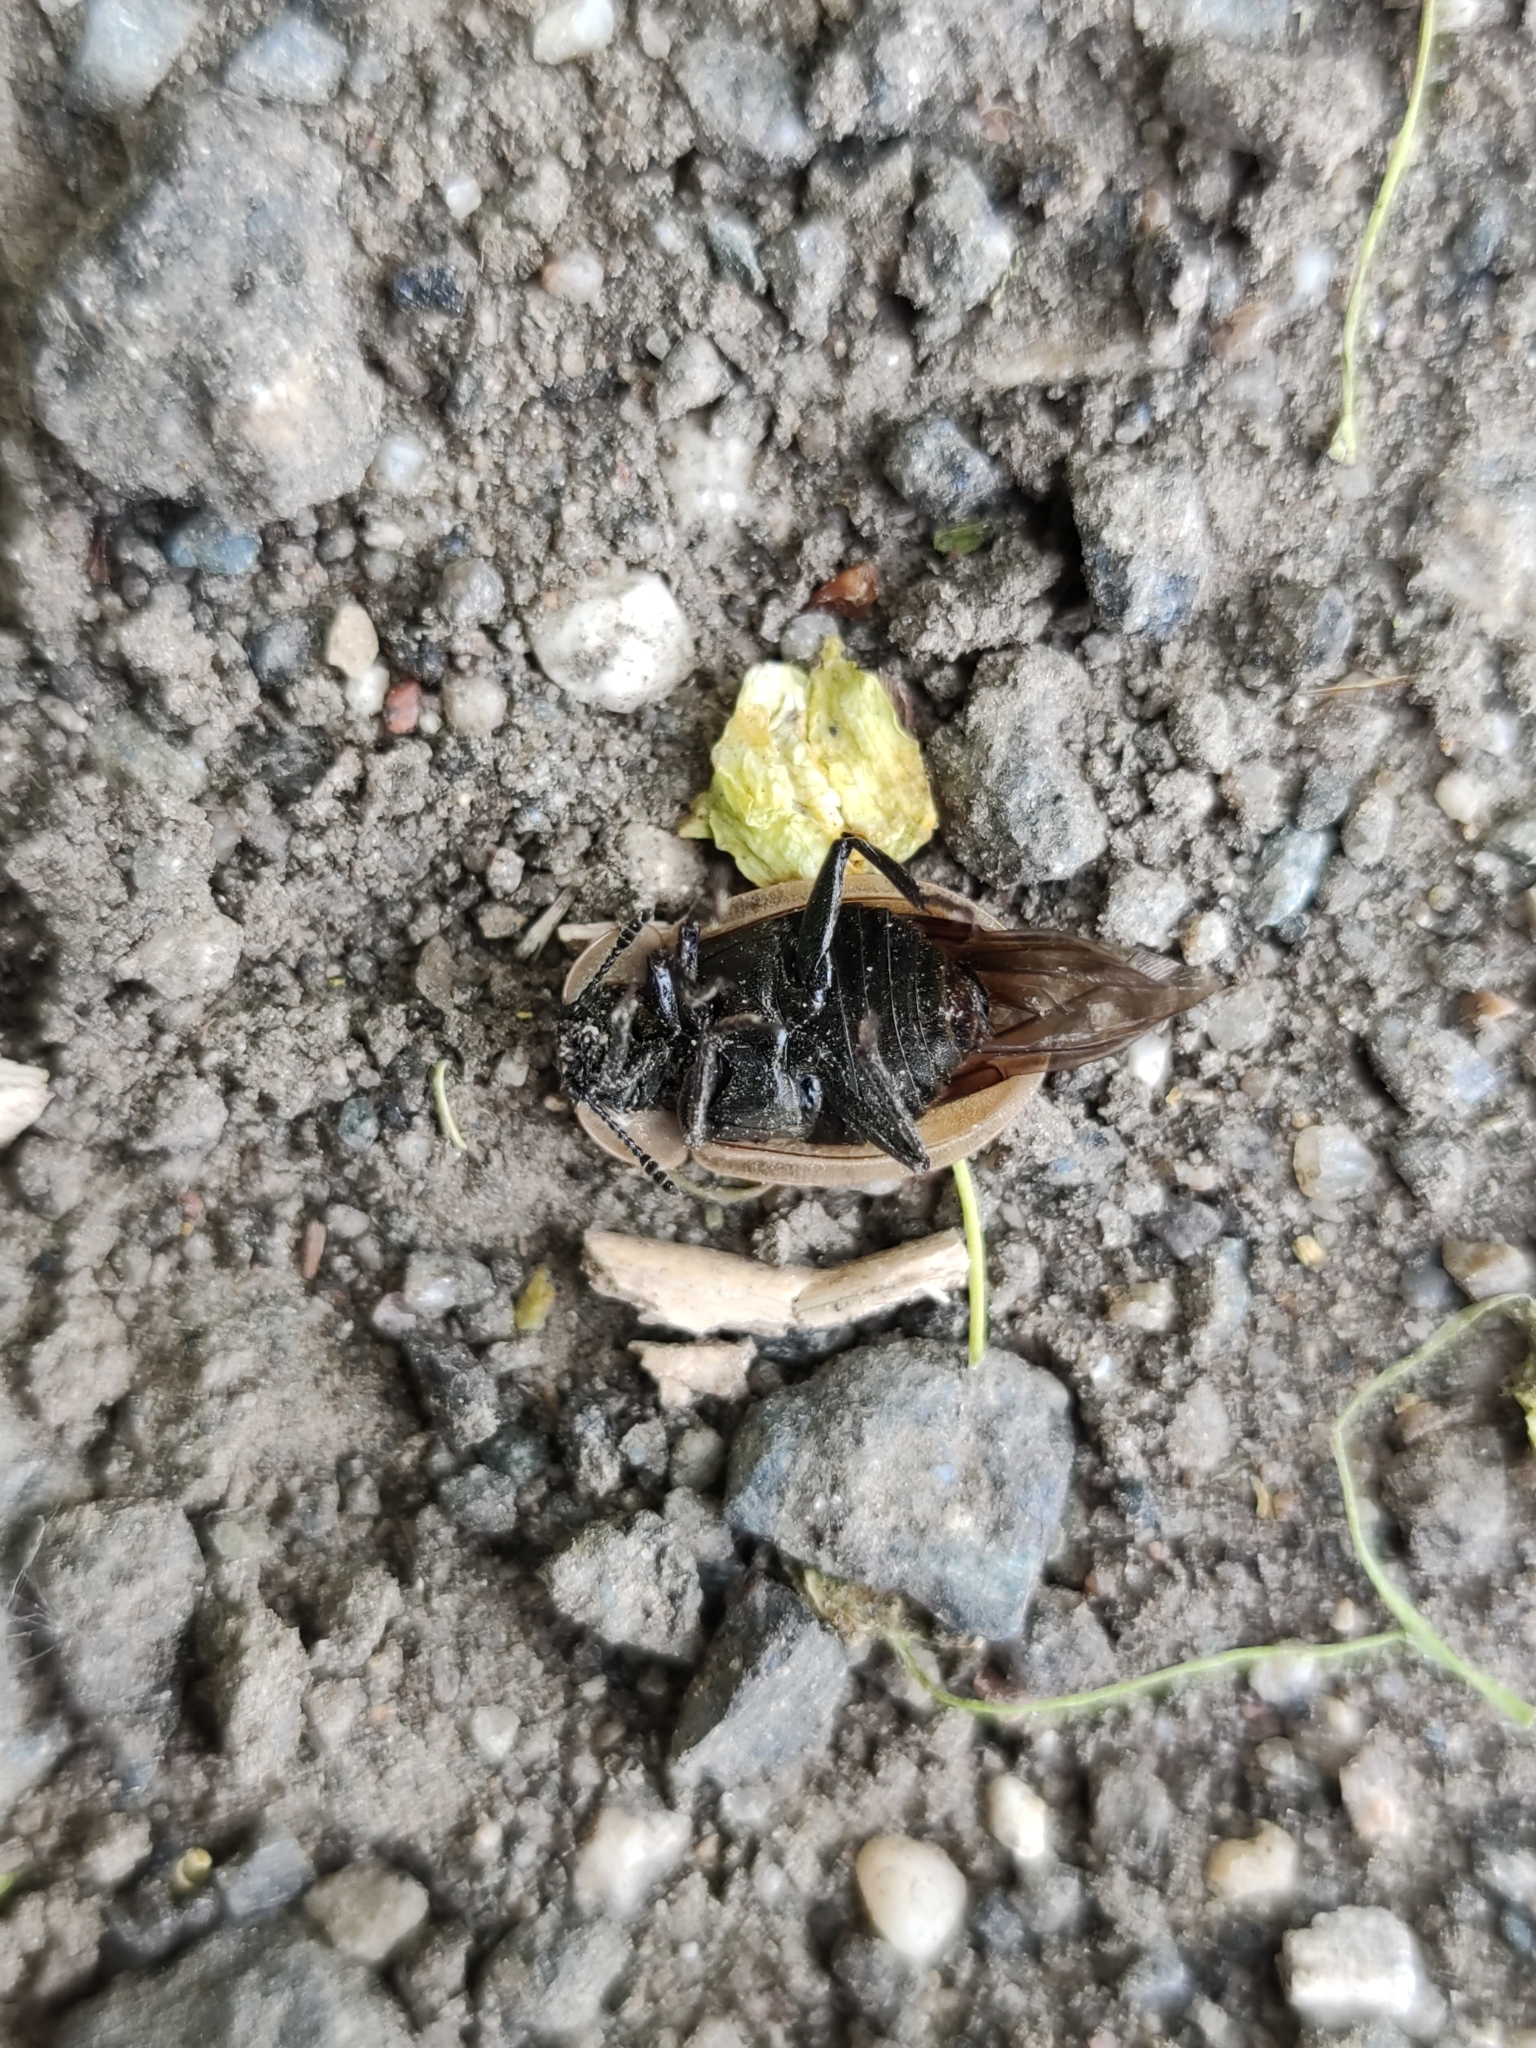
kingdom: Animalia
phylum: Arthropoda
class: Insecta
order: Coleoptera
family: Staphylinidae
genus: Dendroxena
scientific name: Dendroxena quadrimaculata
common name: Carrion beetle
